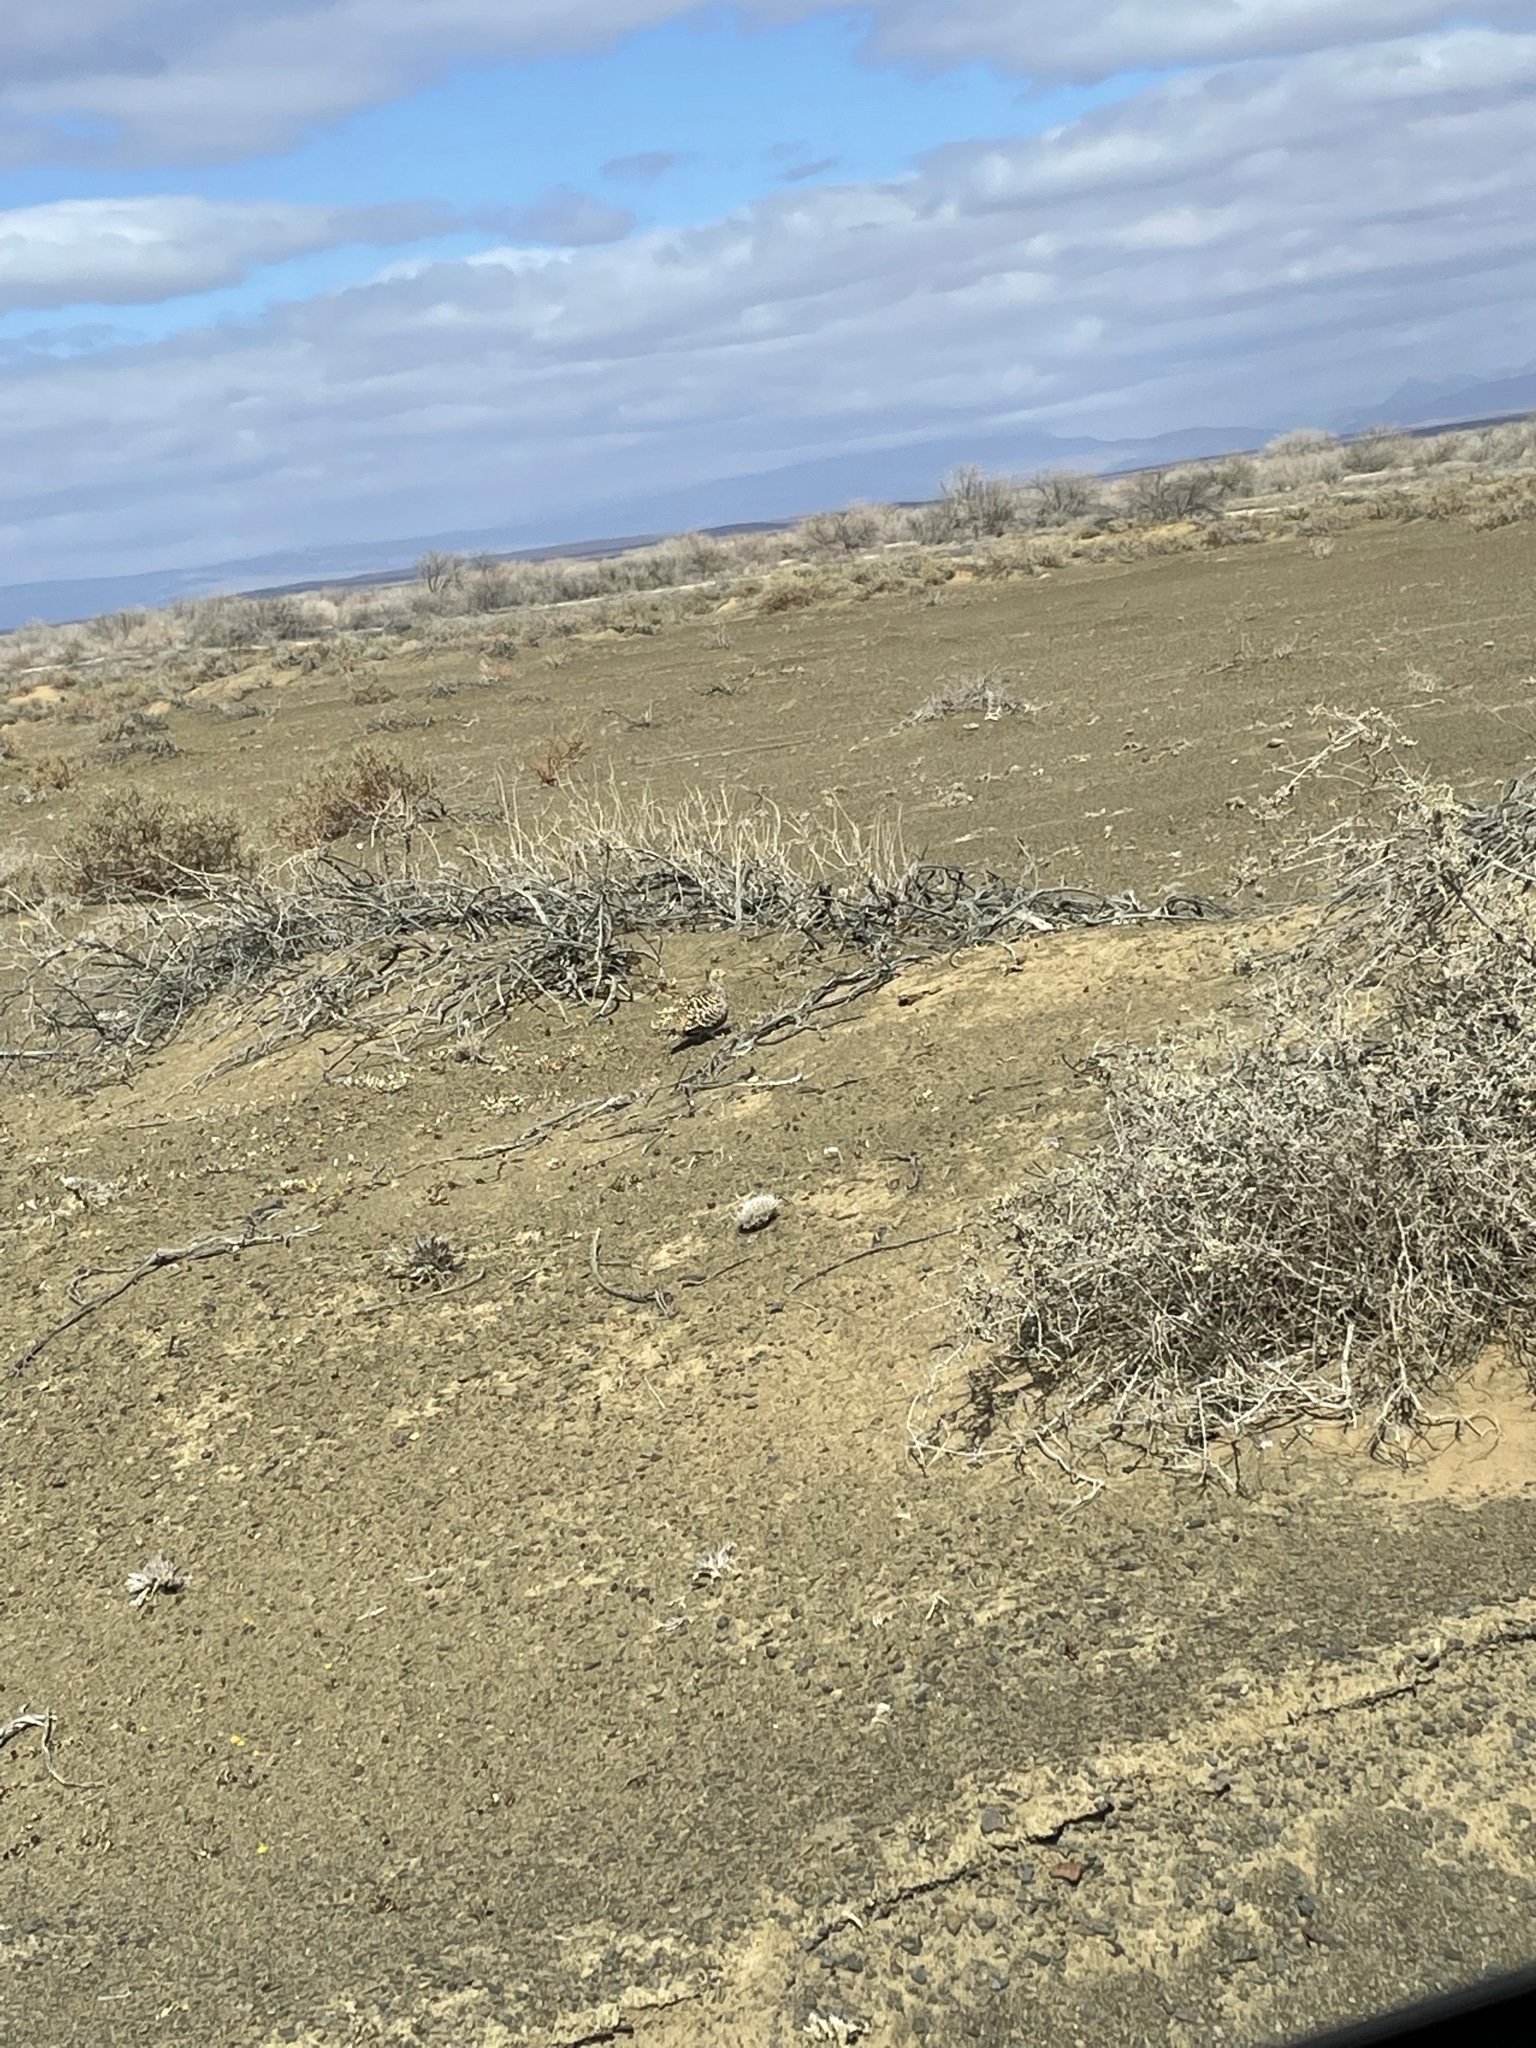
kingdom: Animalia
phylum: Chordata
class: Aves
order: Pteroclidiformes
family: Pteroclididae
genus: Pterocles
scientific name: Pterocles namaqua
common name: Namaqua sandgrouse
